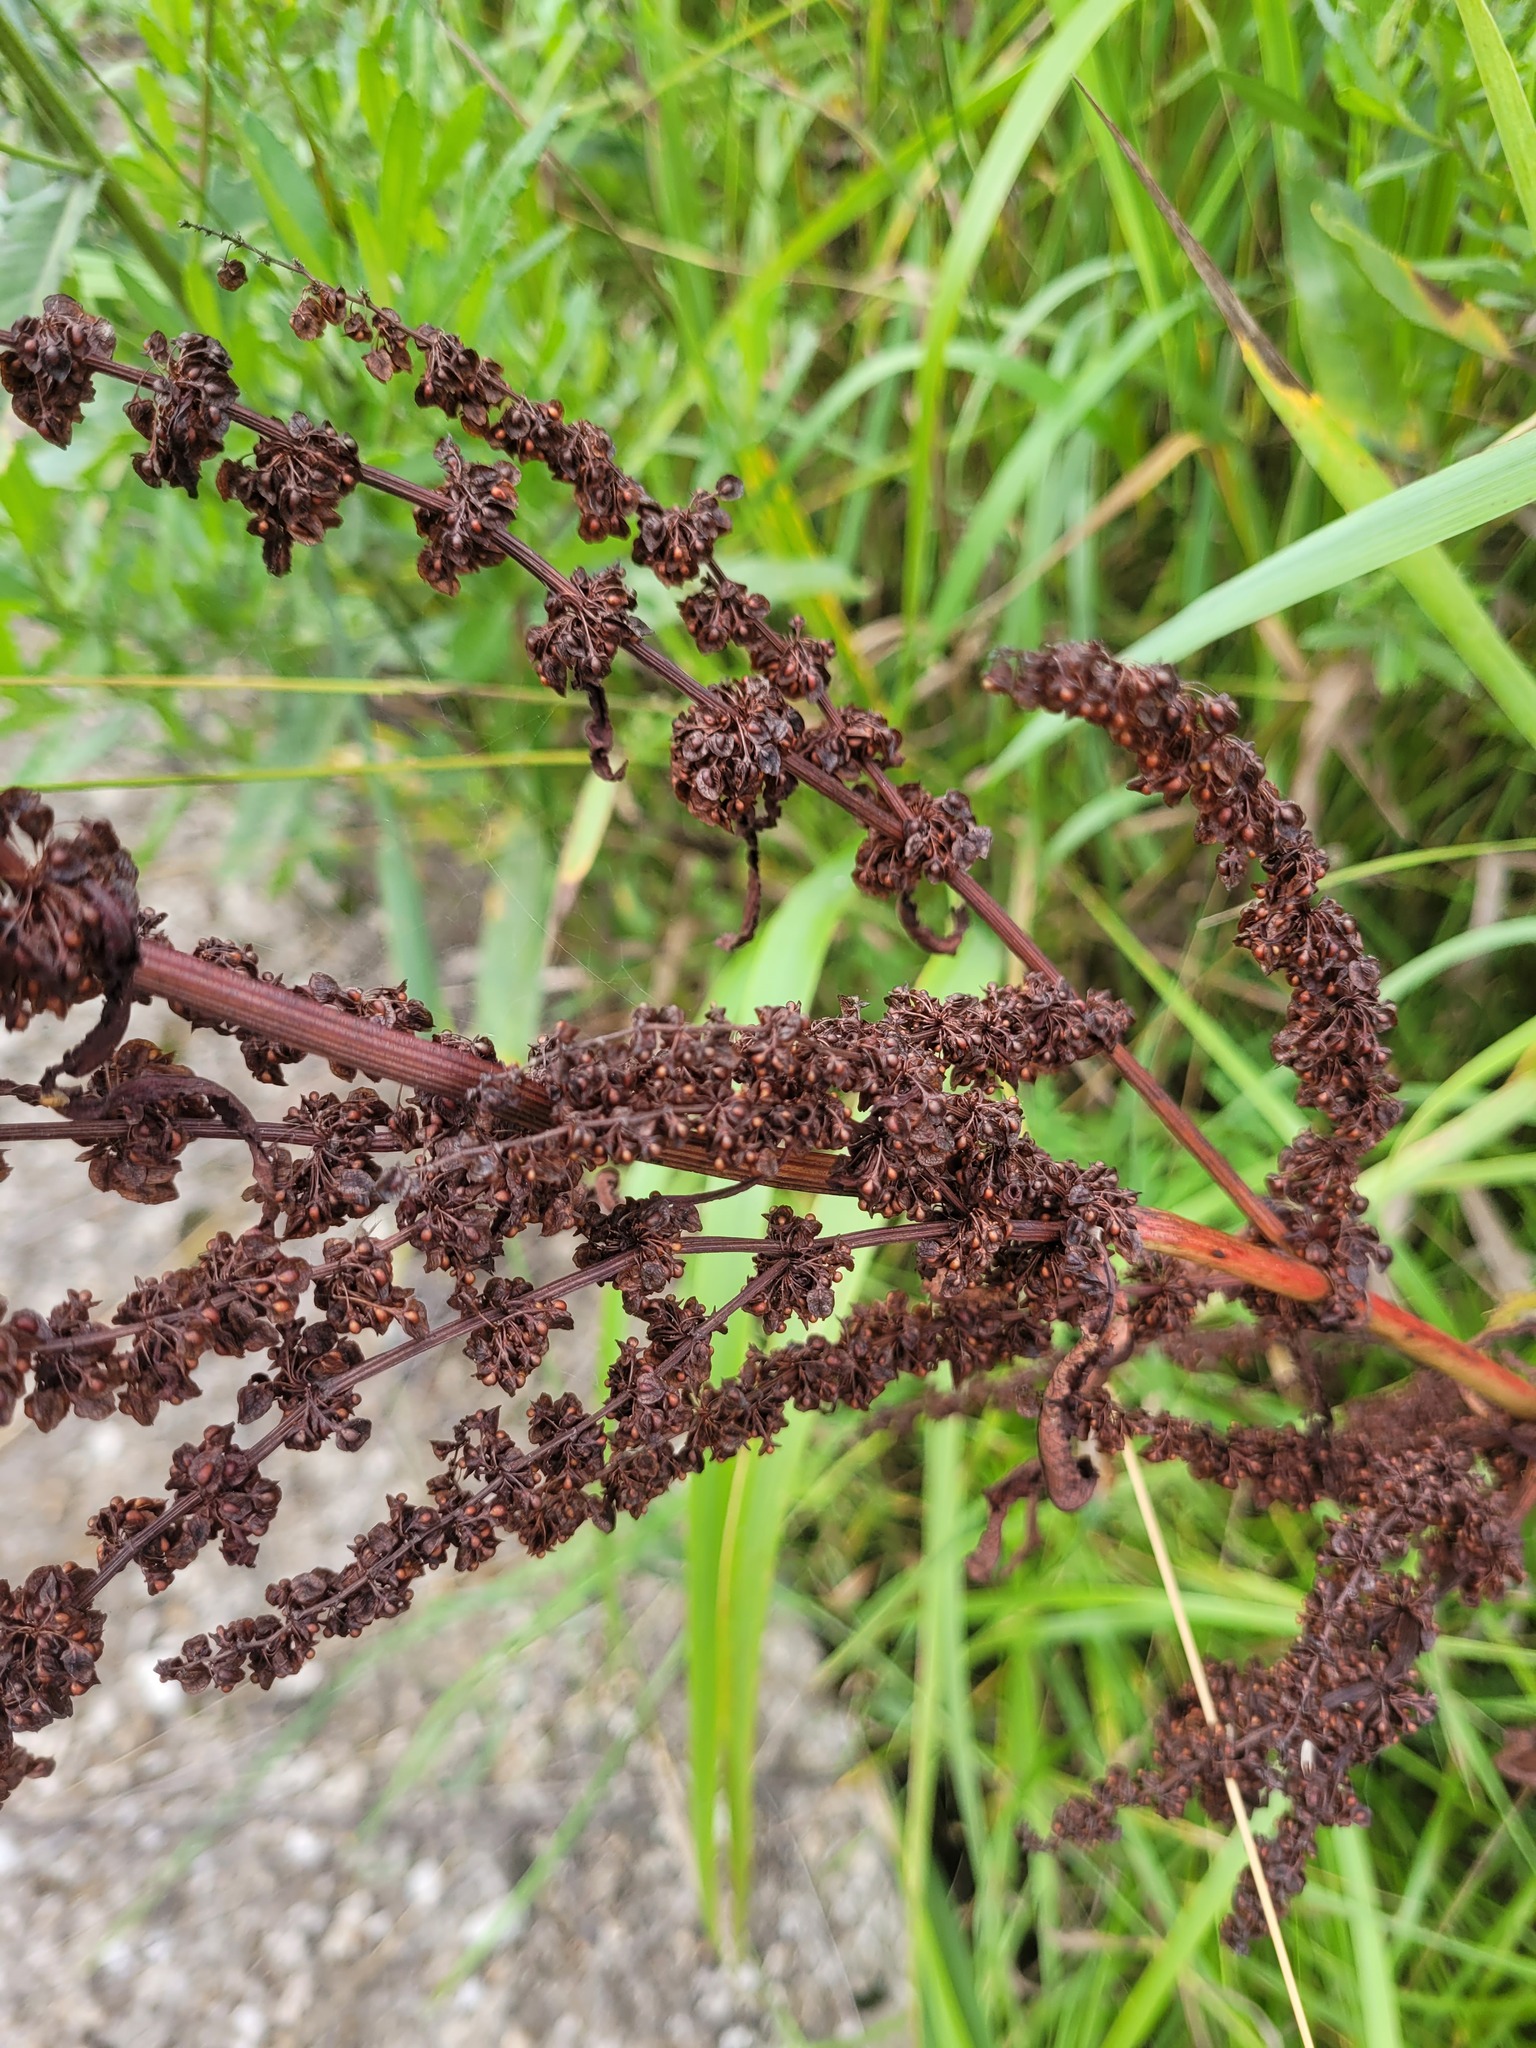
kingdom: Plantae
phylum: Tracheophyta
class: Magnoliopsida
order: Caryophyllales
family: Polygonaceae
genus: Rumex
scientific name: Rumex crispus
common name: Curled dock
